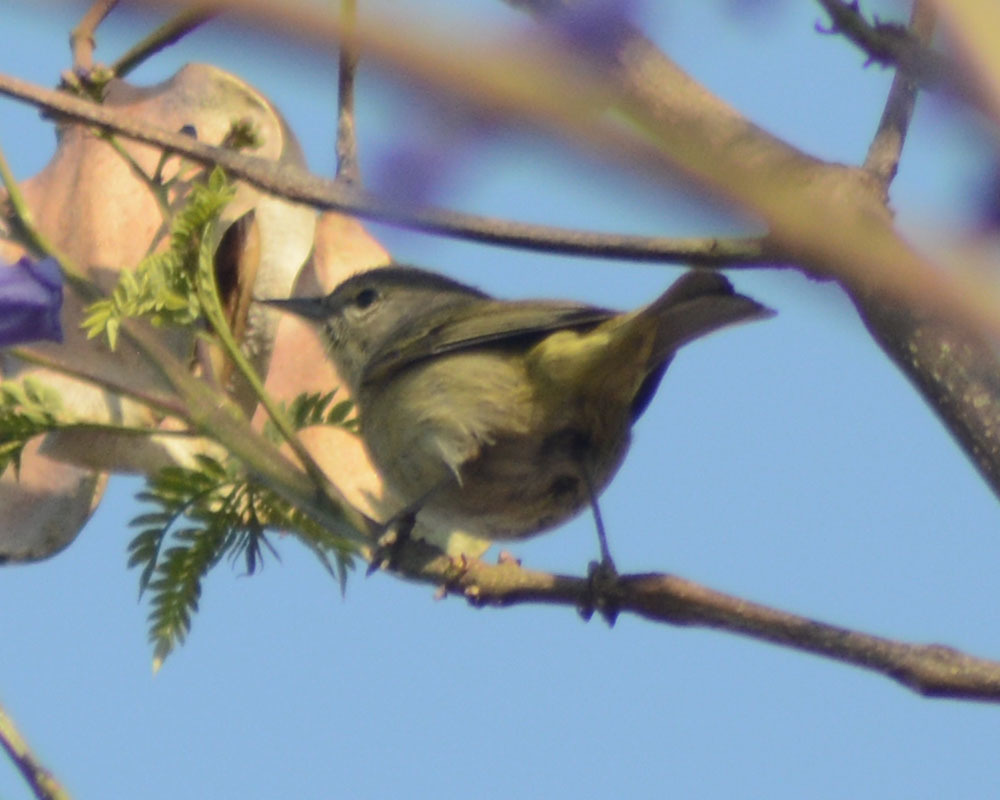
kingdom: Animalia
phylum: Chordata
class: Aves
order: Passeriformes
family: Parulidae
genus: Leiothlypis
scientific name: Leiothlypis celata
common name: Orange-crowned warbler
